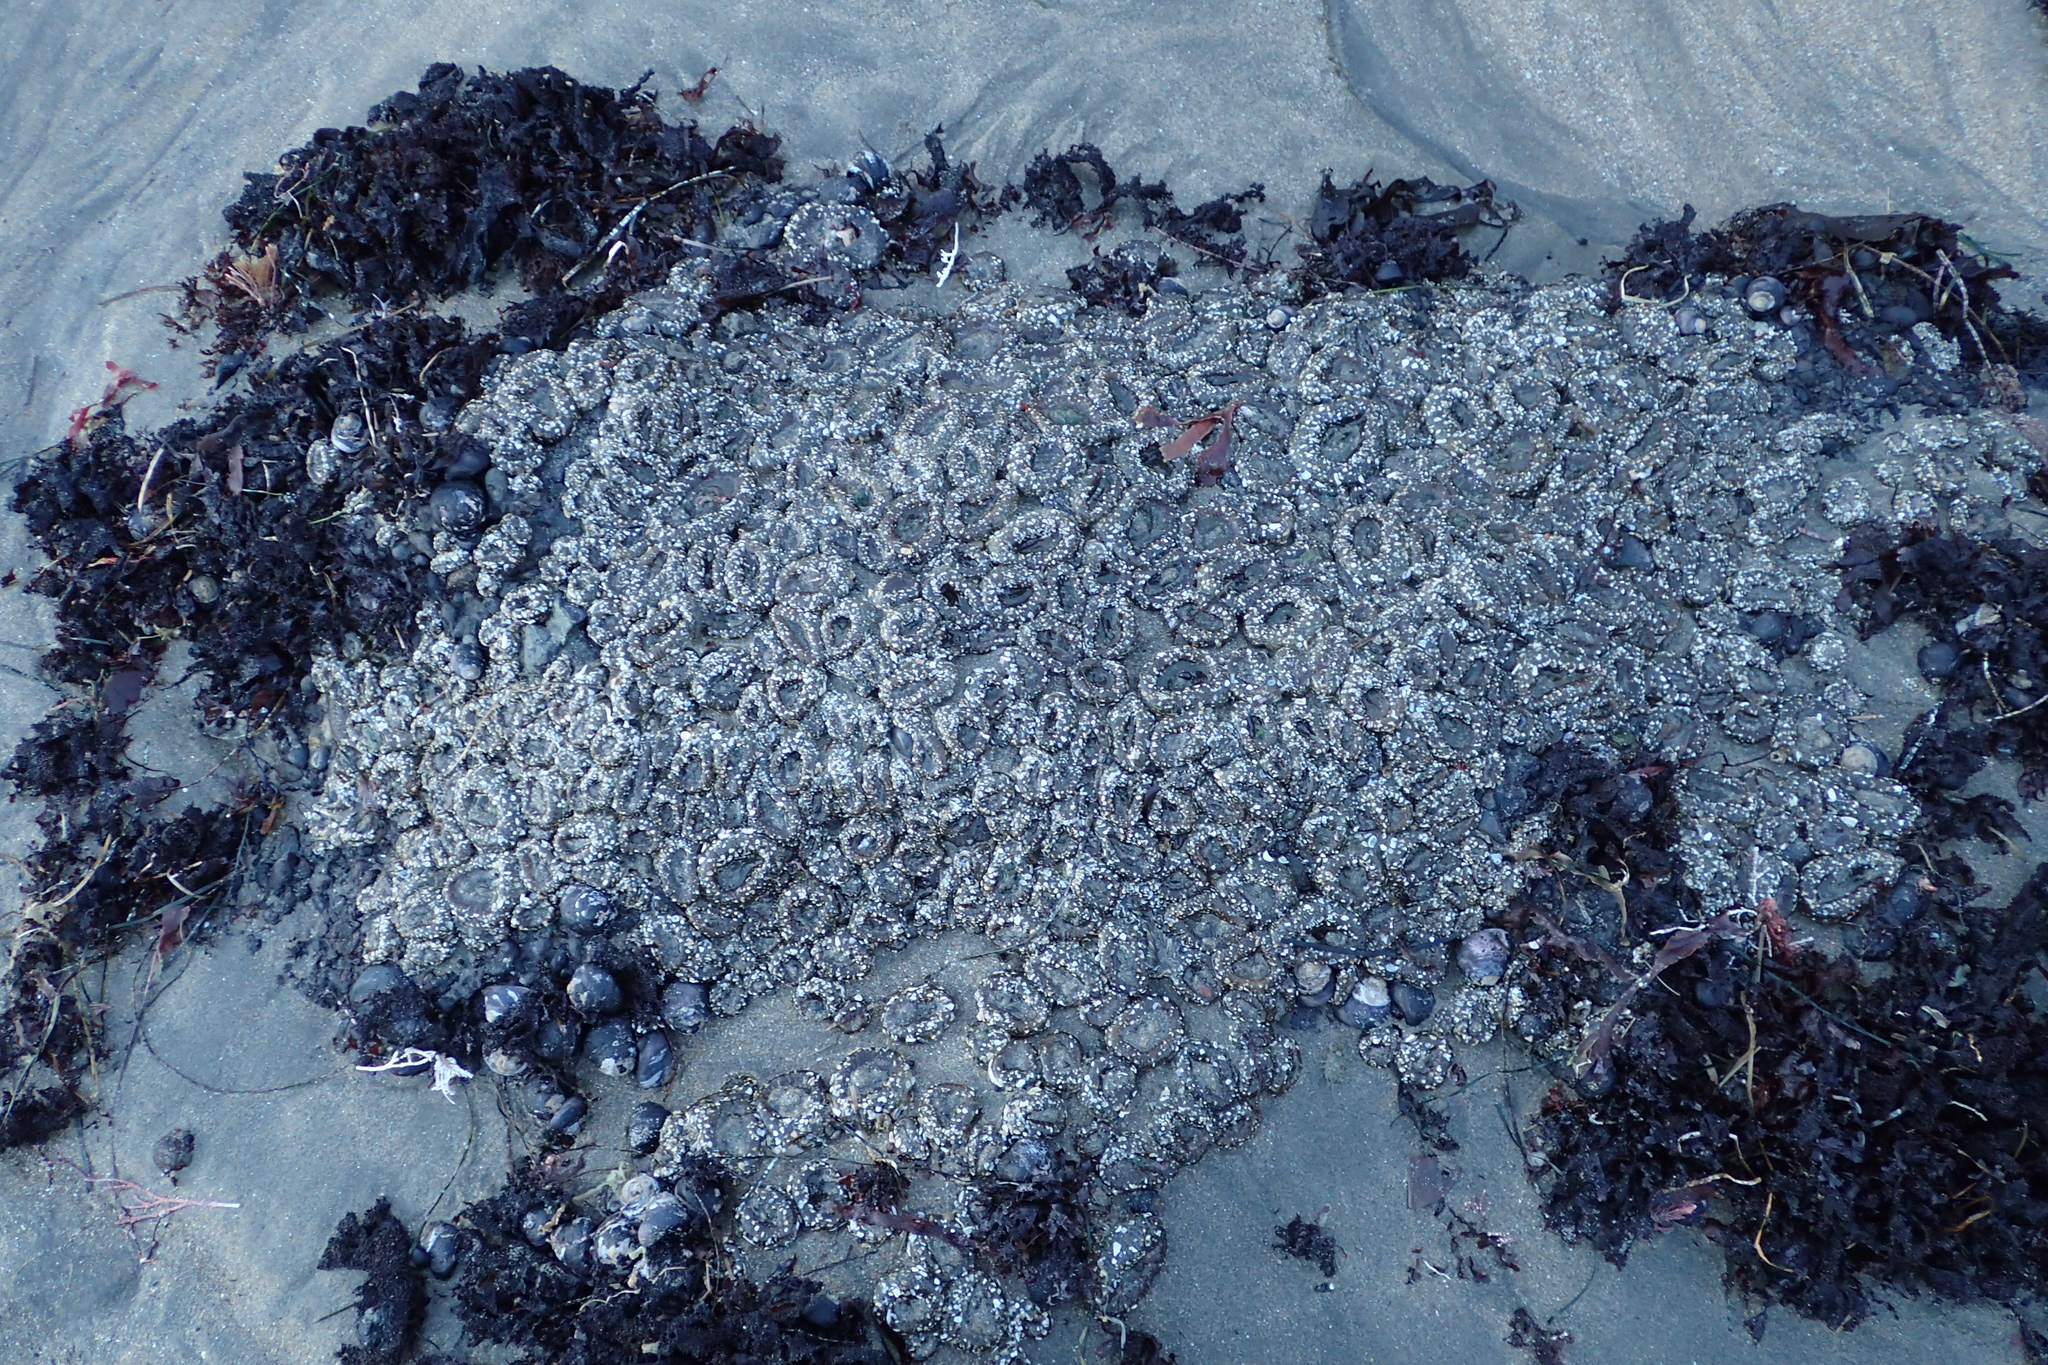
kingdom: Animalia
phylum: Cnidaria
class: Anthozoa
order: Actiniaria
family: Actiniidae
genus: Anthopleura
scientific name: Anthopleura elegantissima
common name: Clonal anemone
